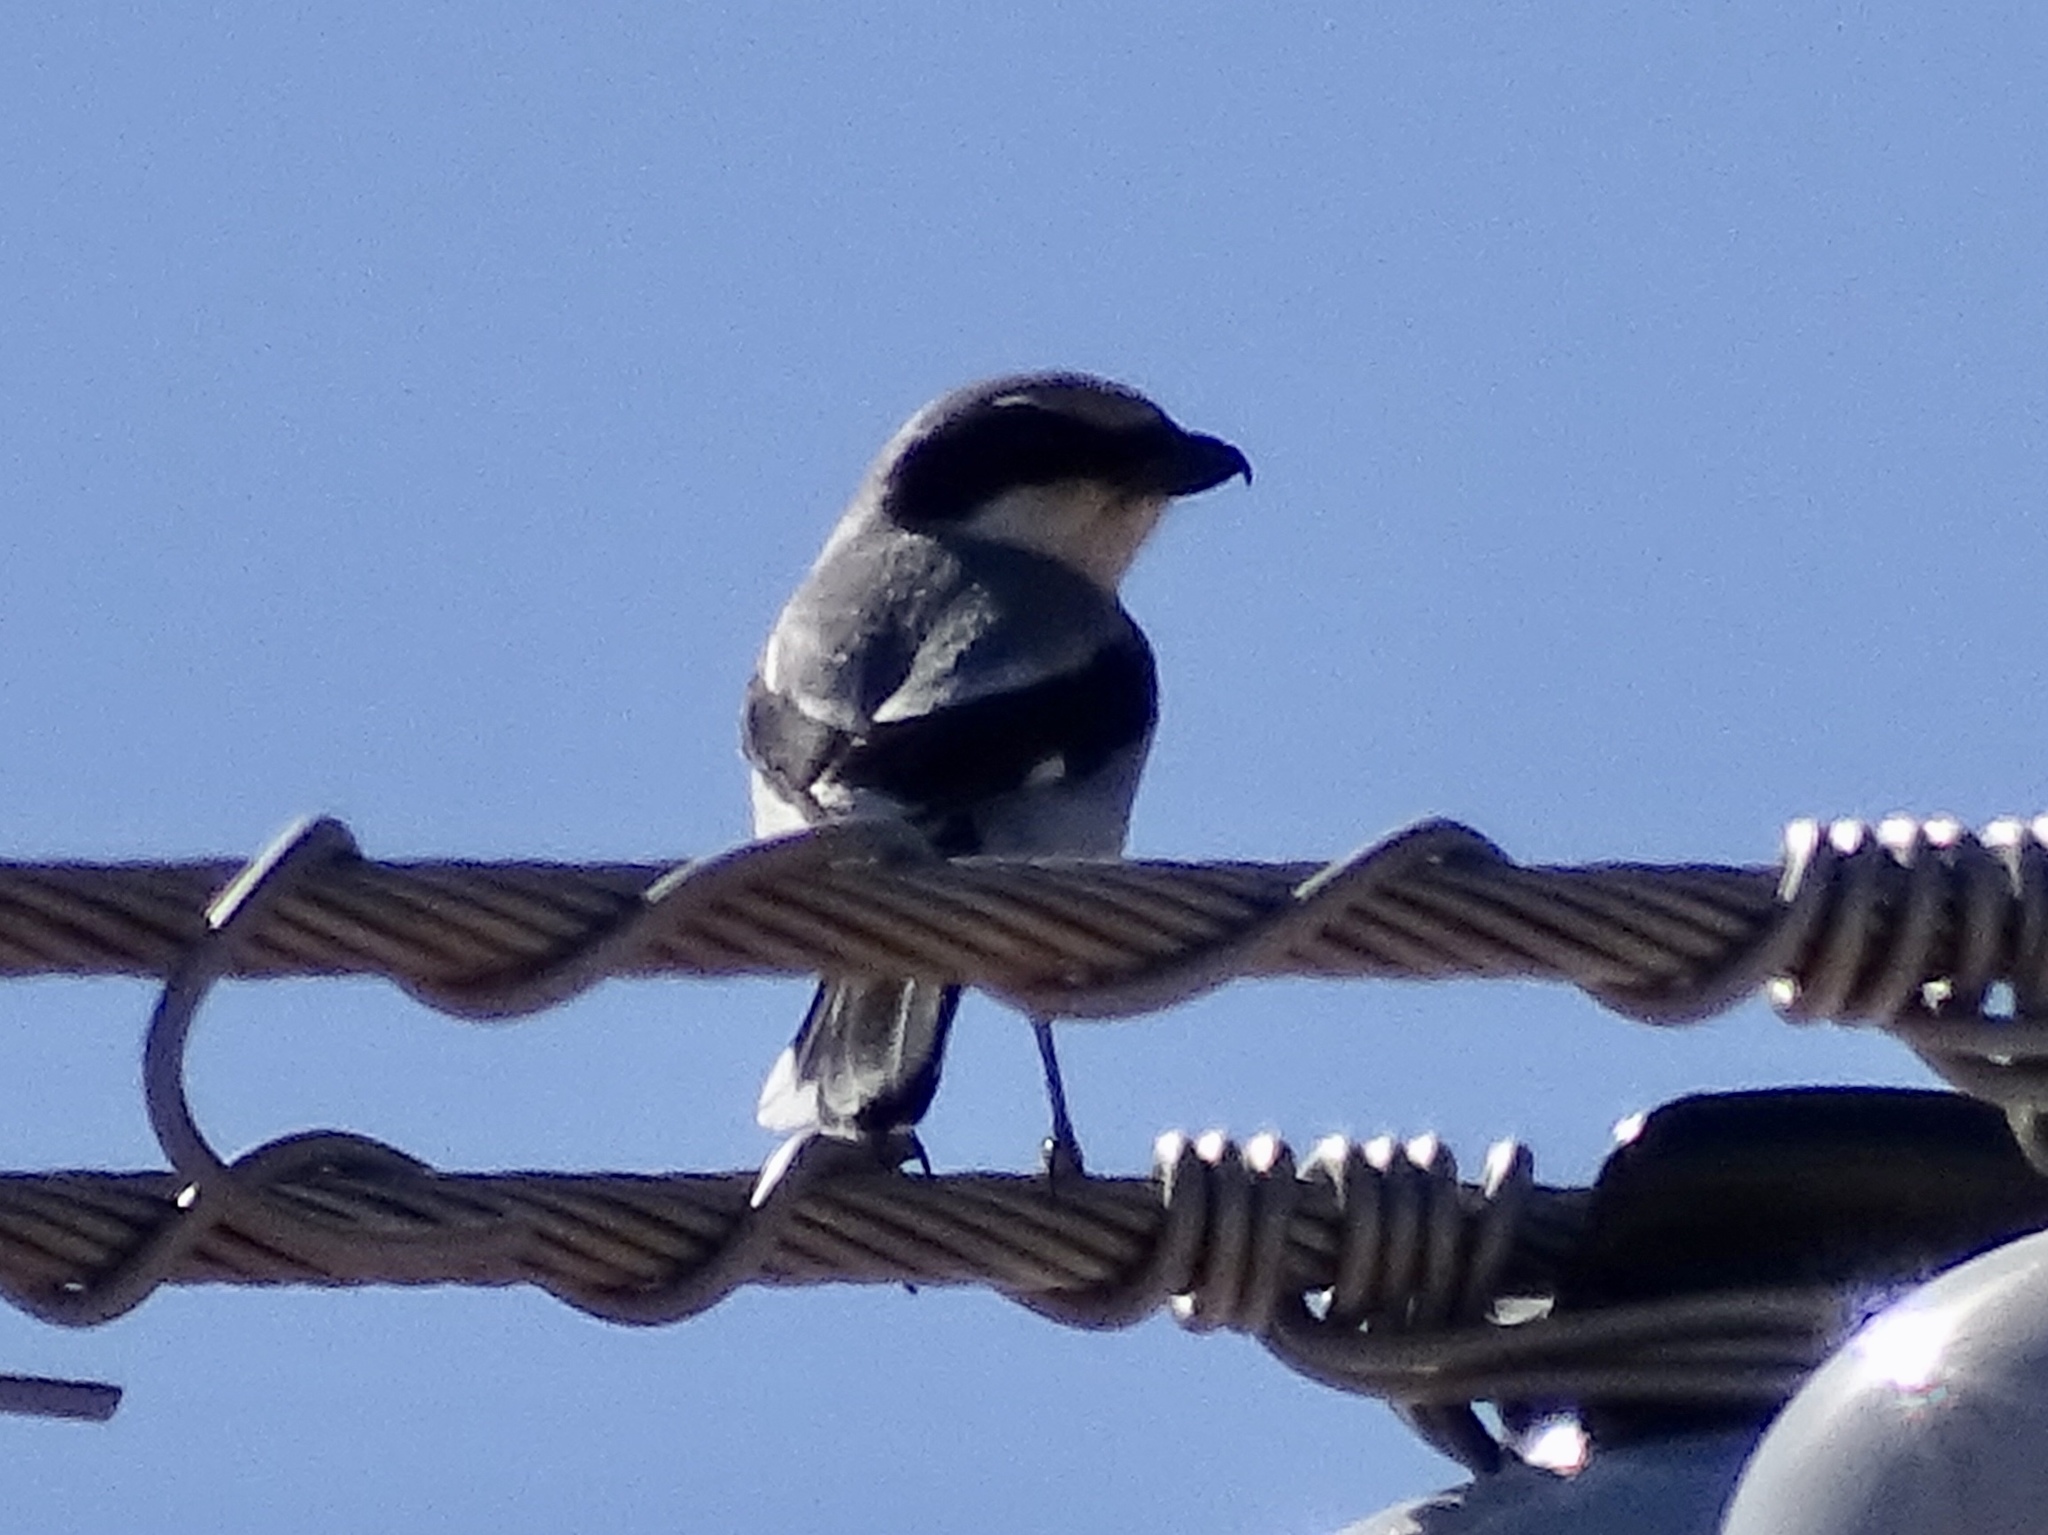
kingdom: Animalia
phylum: Chordata
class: Aves
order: Passeriformes
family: Laniidae
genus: Lanius
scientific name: Lanius ludovicianus
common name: Loggerhead shrike
